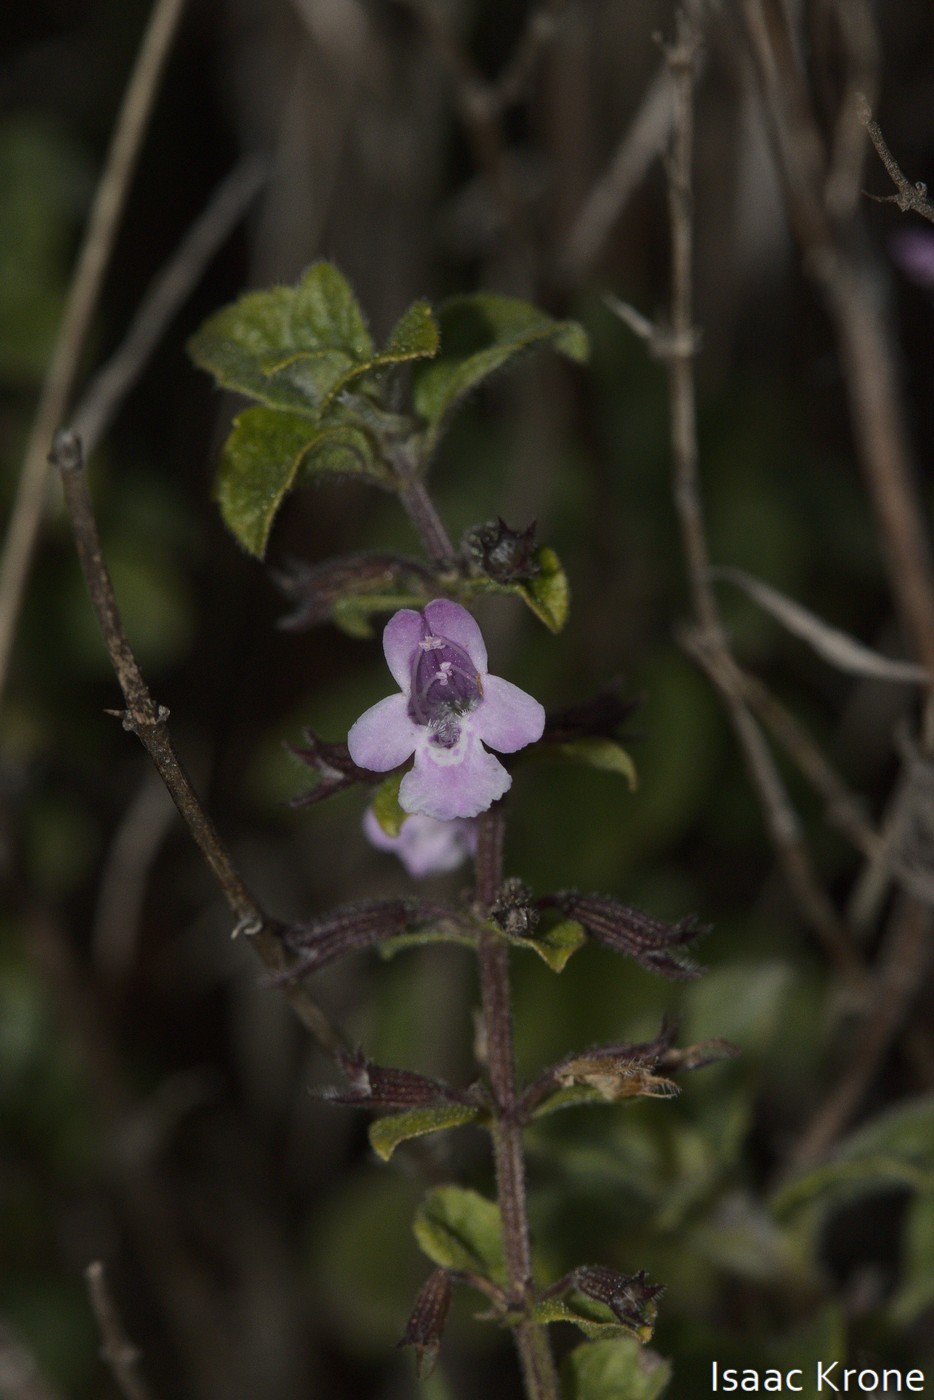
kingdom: Plantae
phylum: Tracheophyta
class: Magnoliopsida
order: Lamiales
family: Lamiaceae
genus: Clinopodium
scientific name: Clinopodium menthifolium
